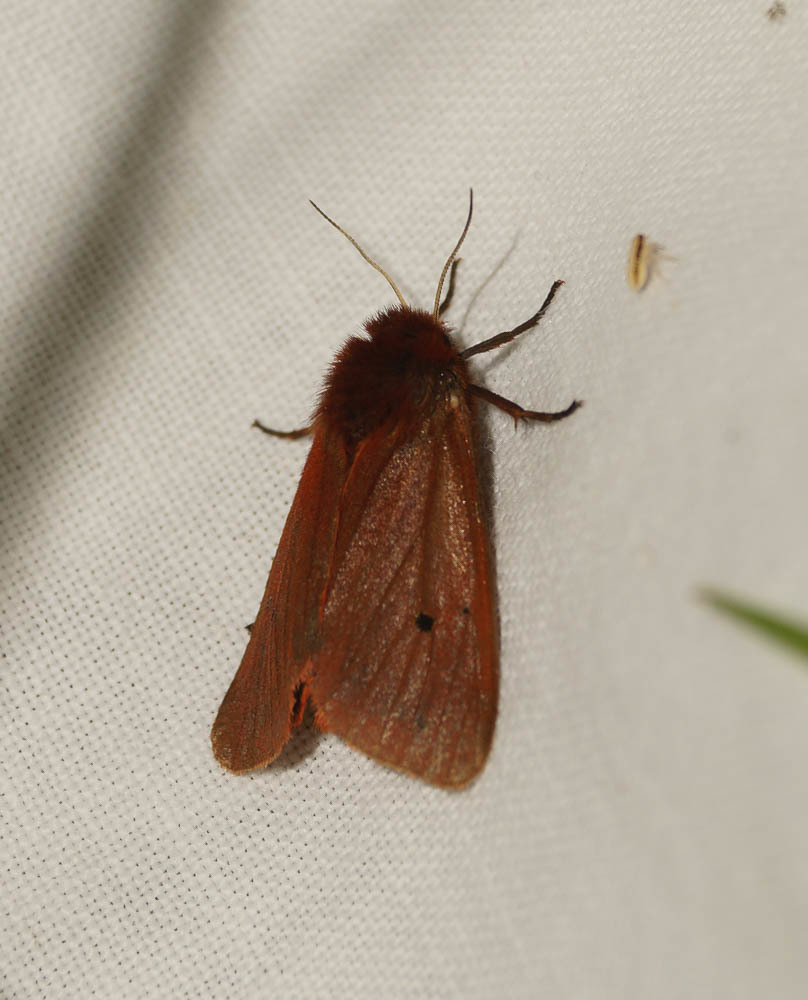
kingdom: Animalia
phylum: Arthropoda
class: Insecta
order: Lepidoptera
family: Erebidae
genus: Phragmatobia
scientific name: Phragmatobia fuliginosa
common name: Ruby tiger
